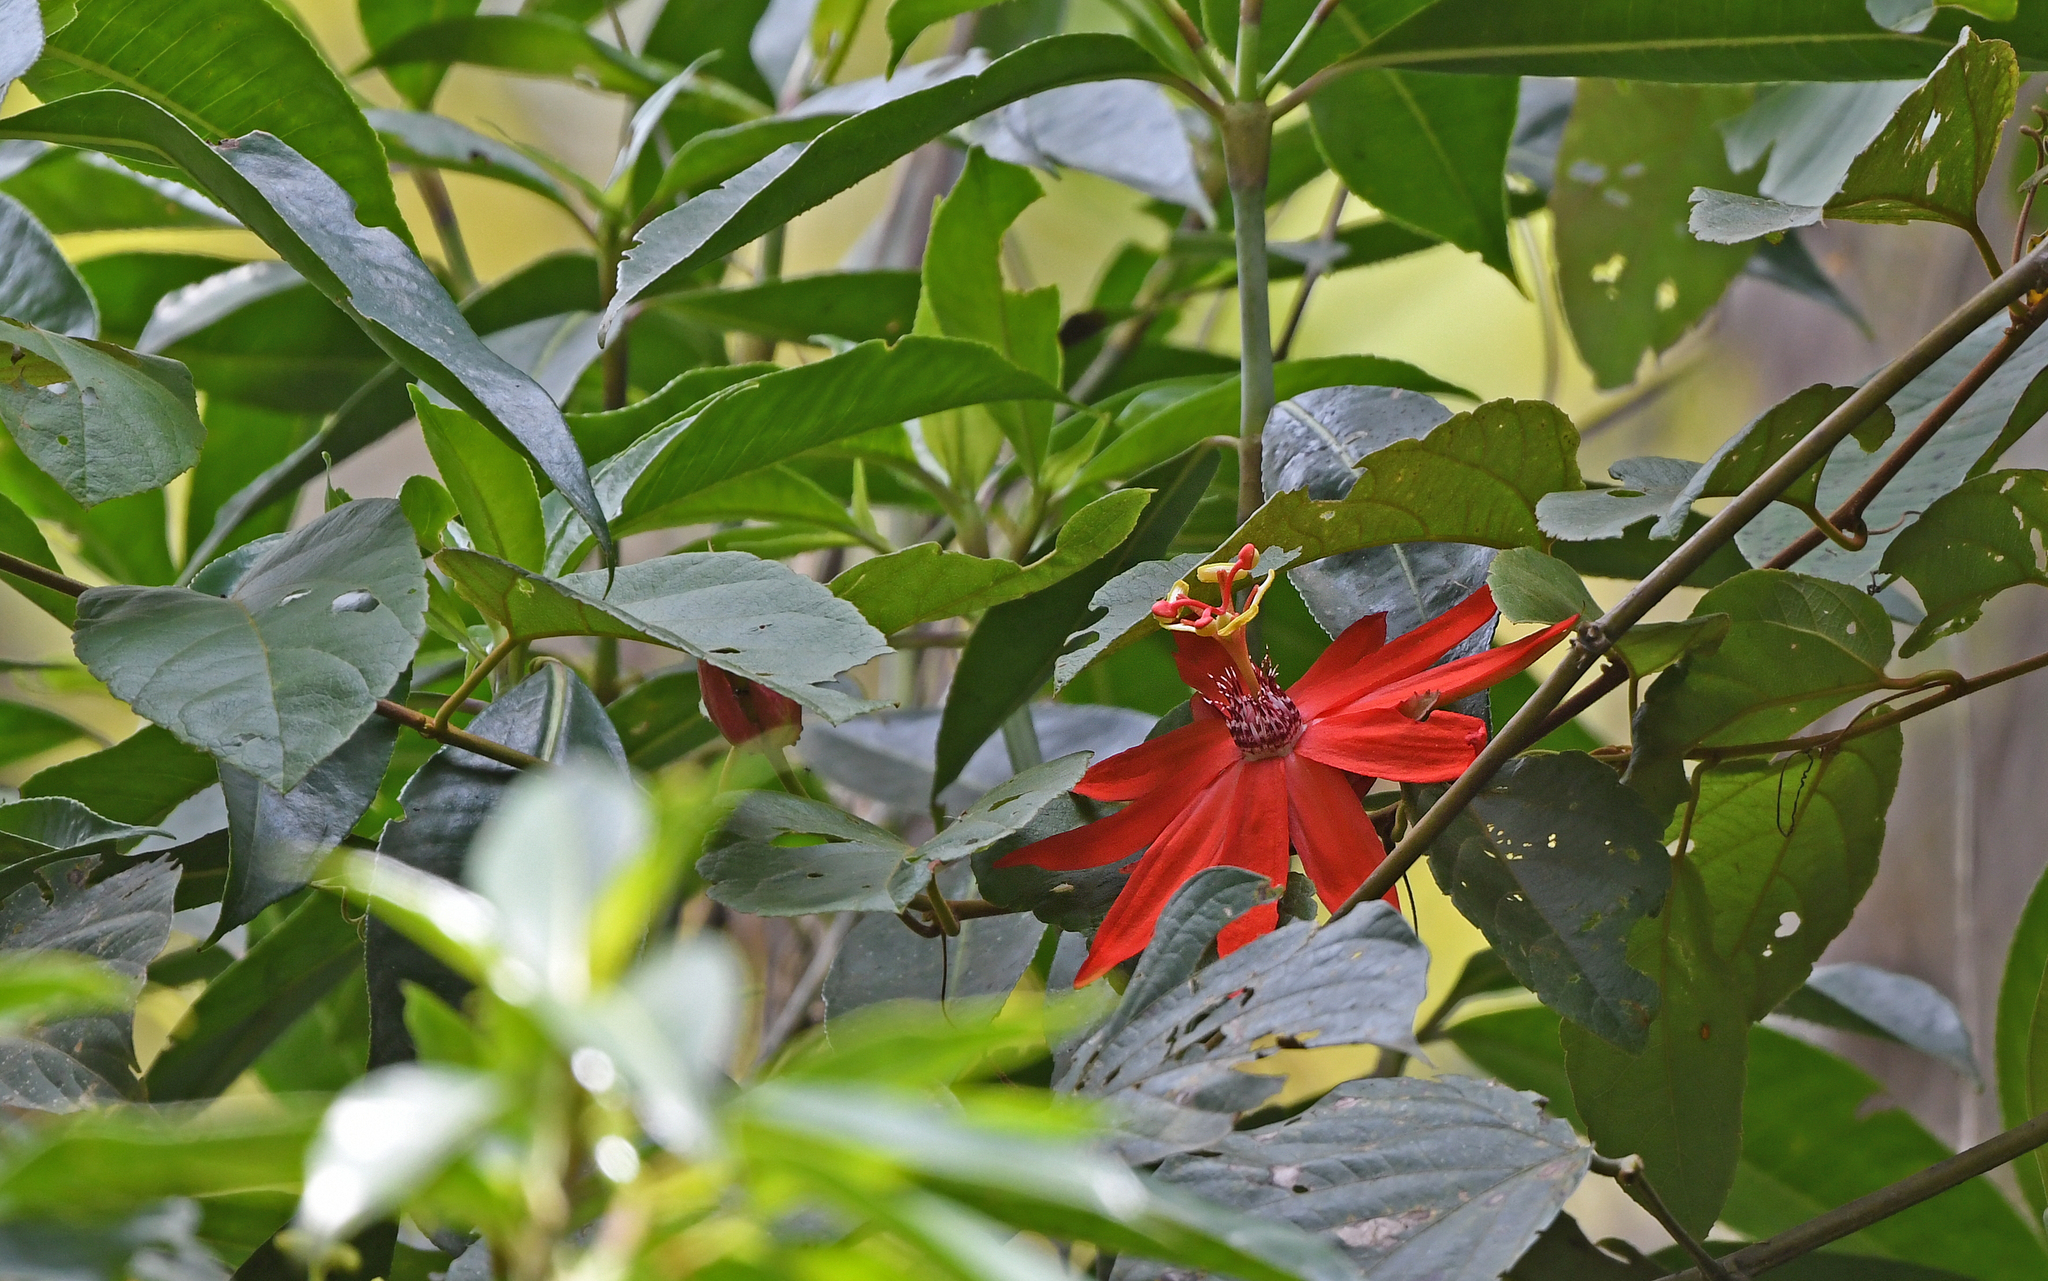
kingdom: Plantae
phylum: Tracheophyta
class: Magnoliopsida
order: Malpighiales
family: Passifloraceae
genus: Passiflora
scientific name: Passiflora coccinea
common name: Scarlet passionflower
